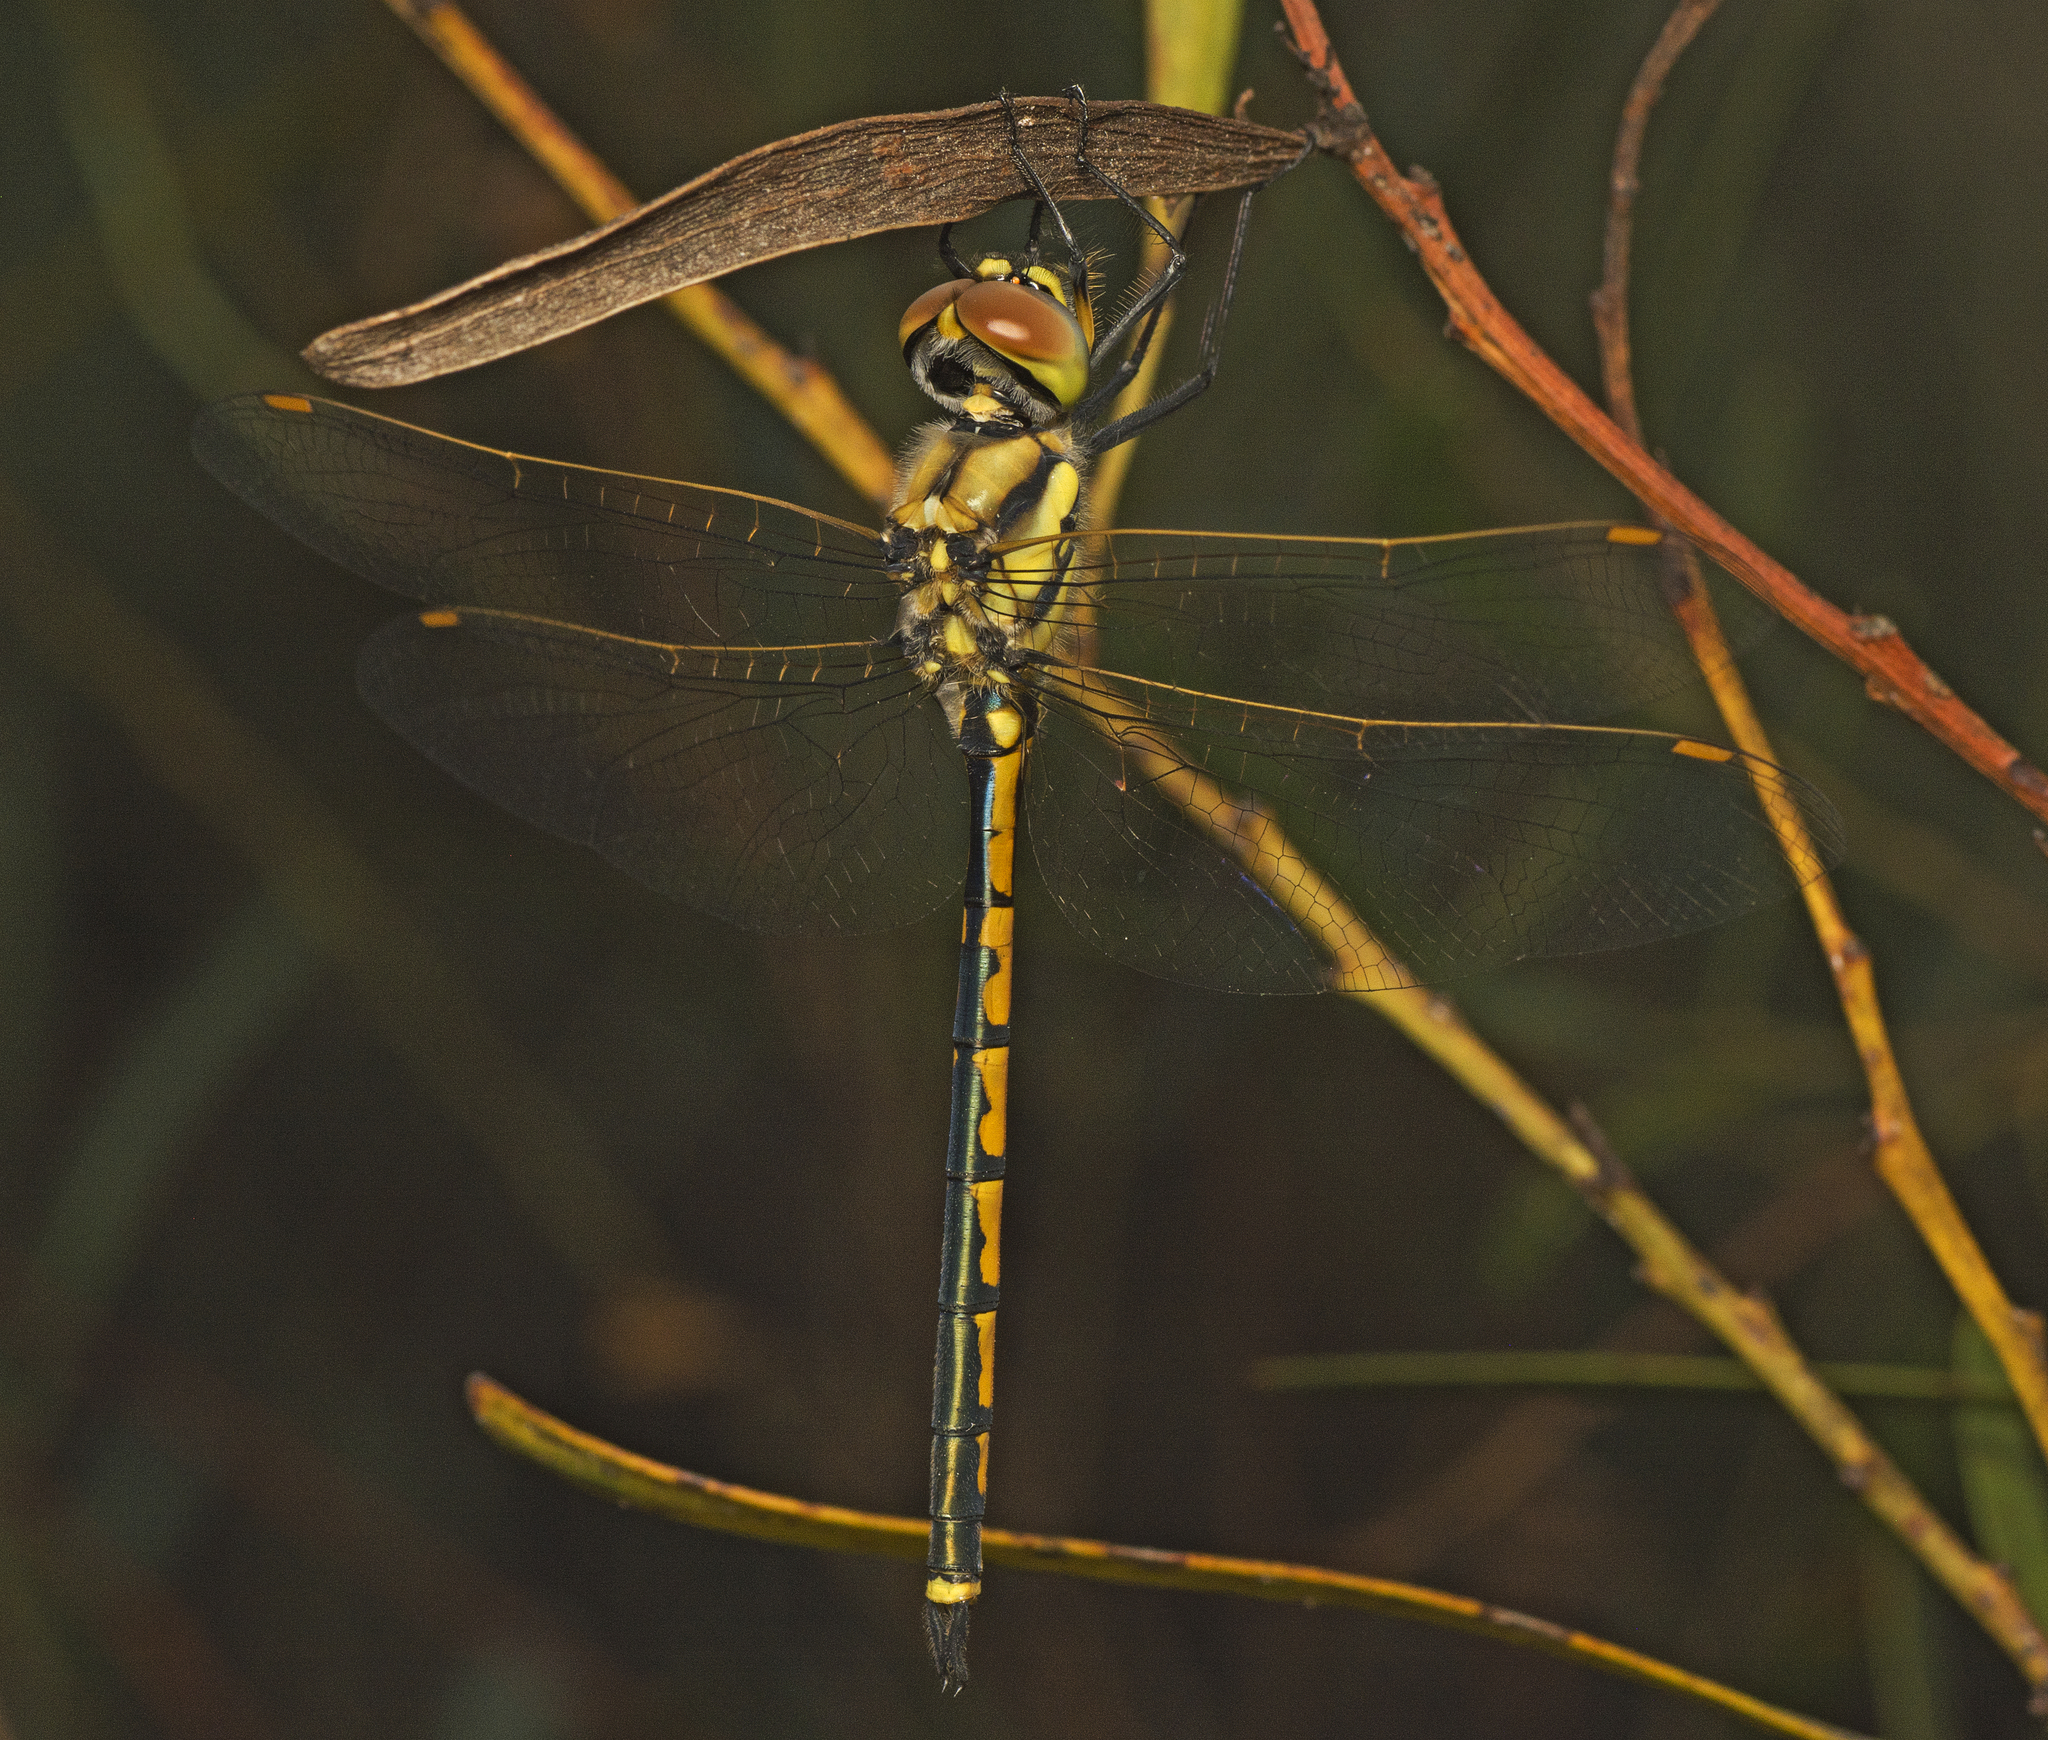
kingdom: Animalia
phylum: Arthropoda
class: Insecta
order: Odonata
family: Corduliidae
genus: Hemicordulia
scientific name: Hemicordulia tau
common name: Tau emerald
